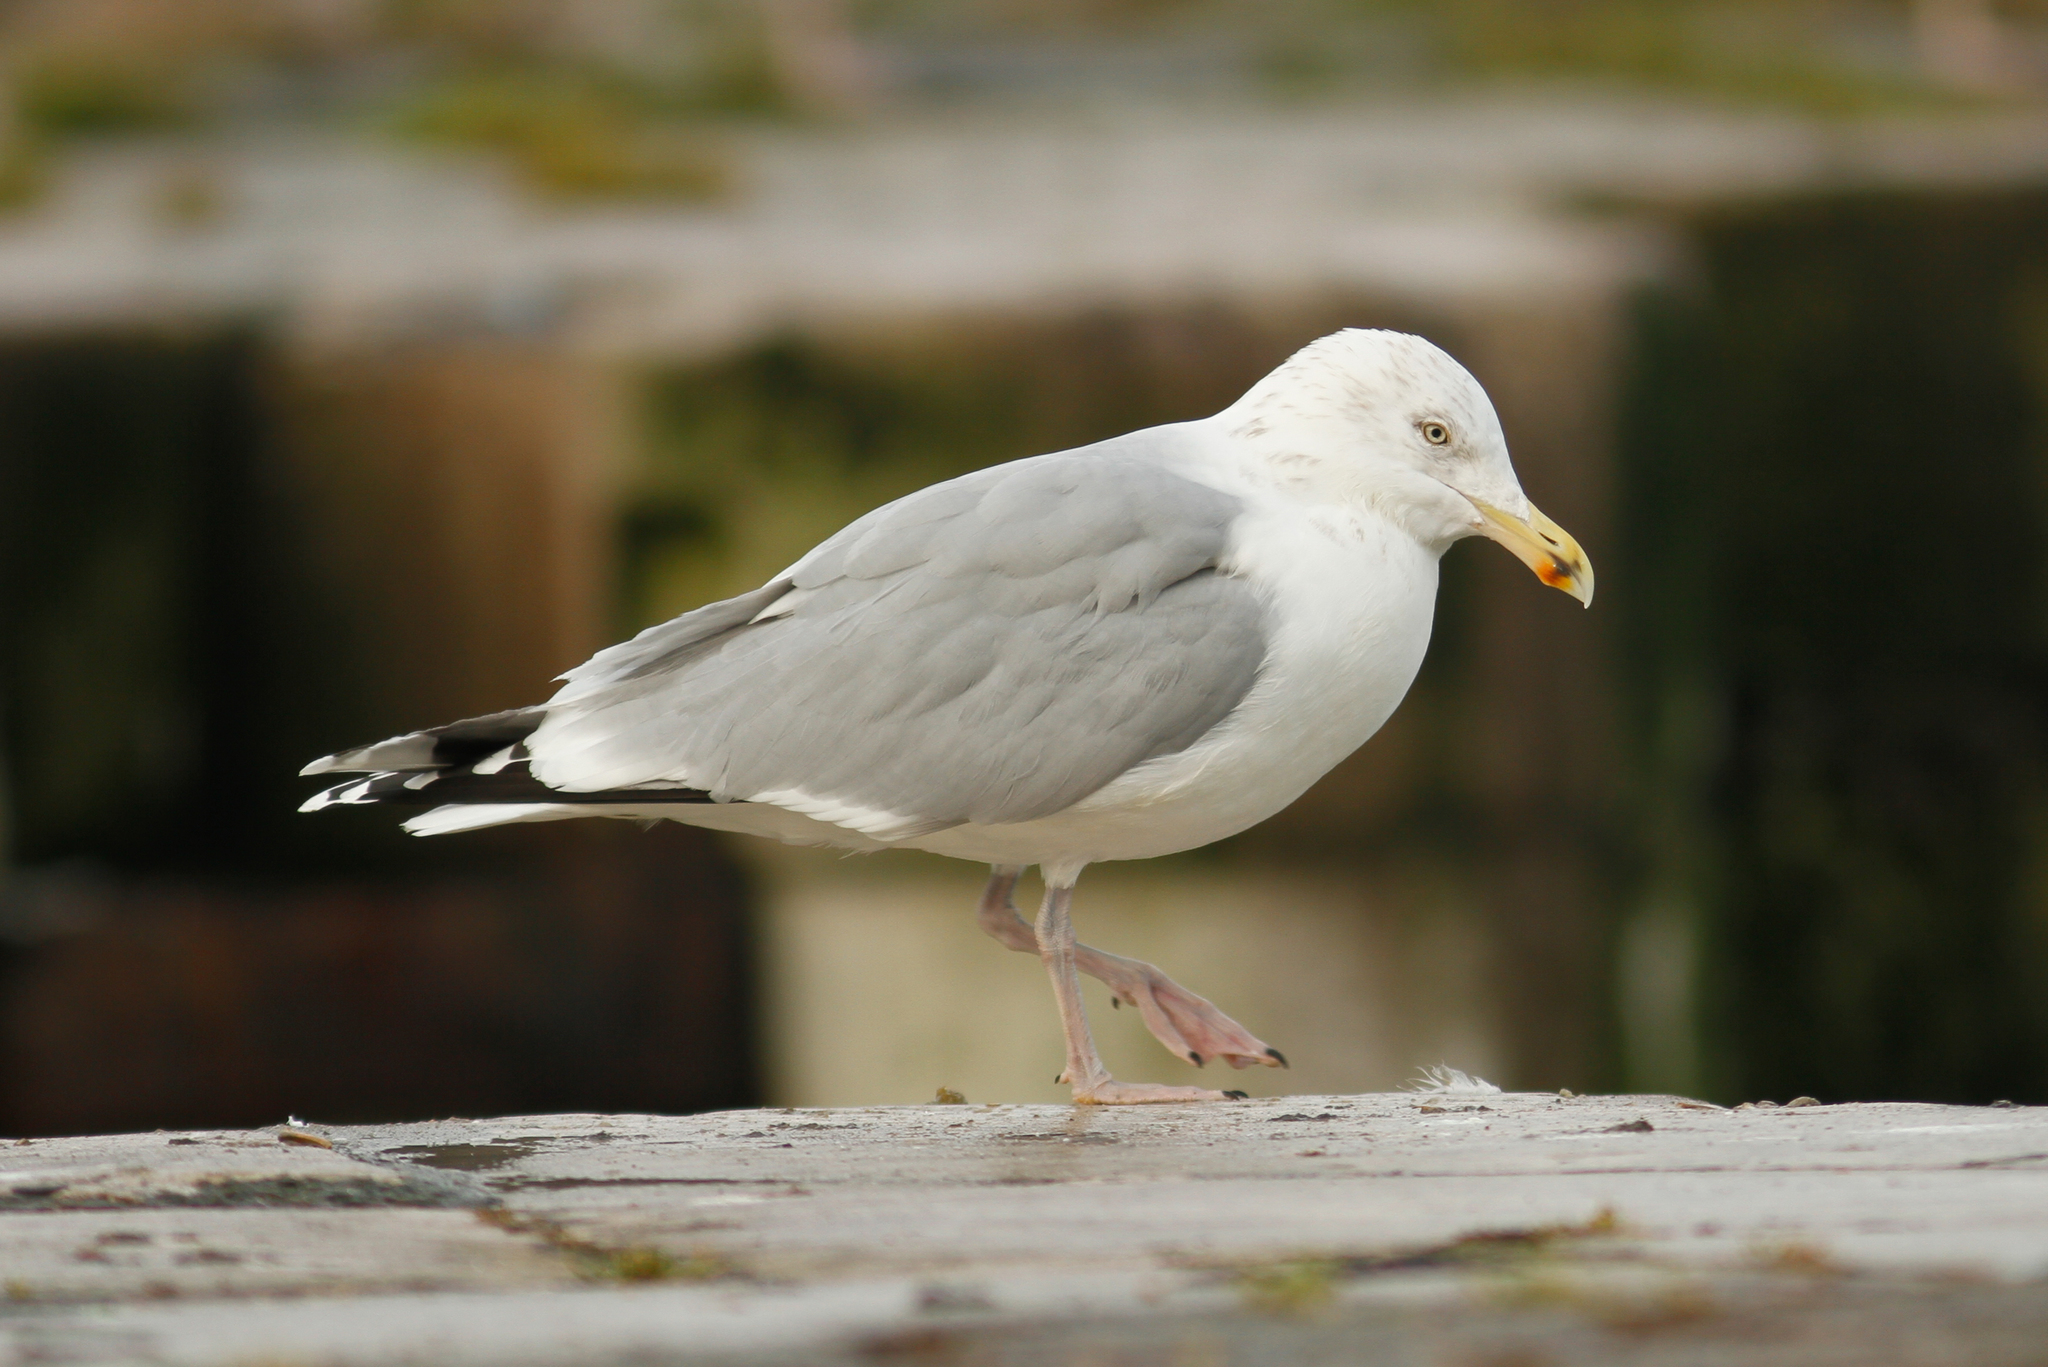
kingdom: Animalia
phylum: Chordata
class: Aves
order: Charadriiformes
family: Laridae
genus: Larus
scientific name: Larus argentatus
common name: Herring gull
